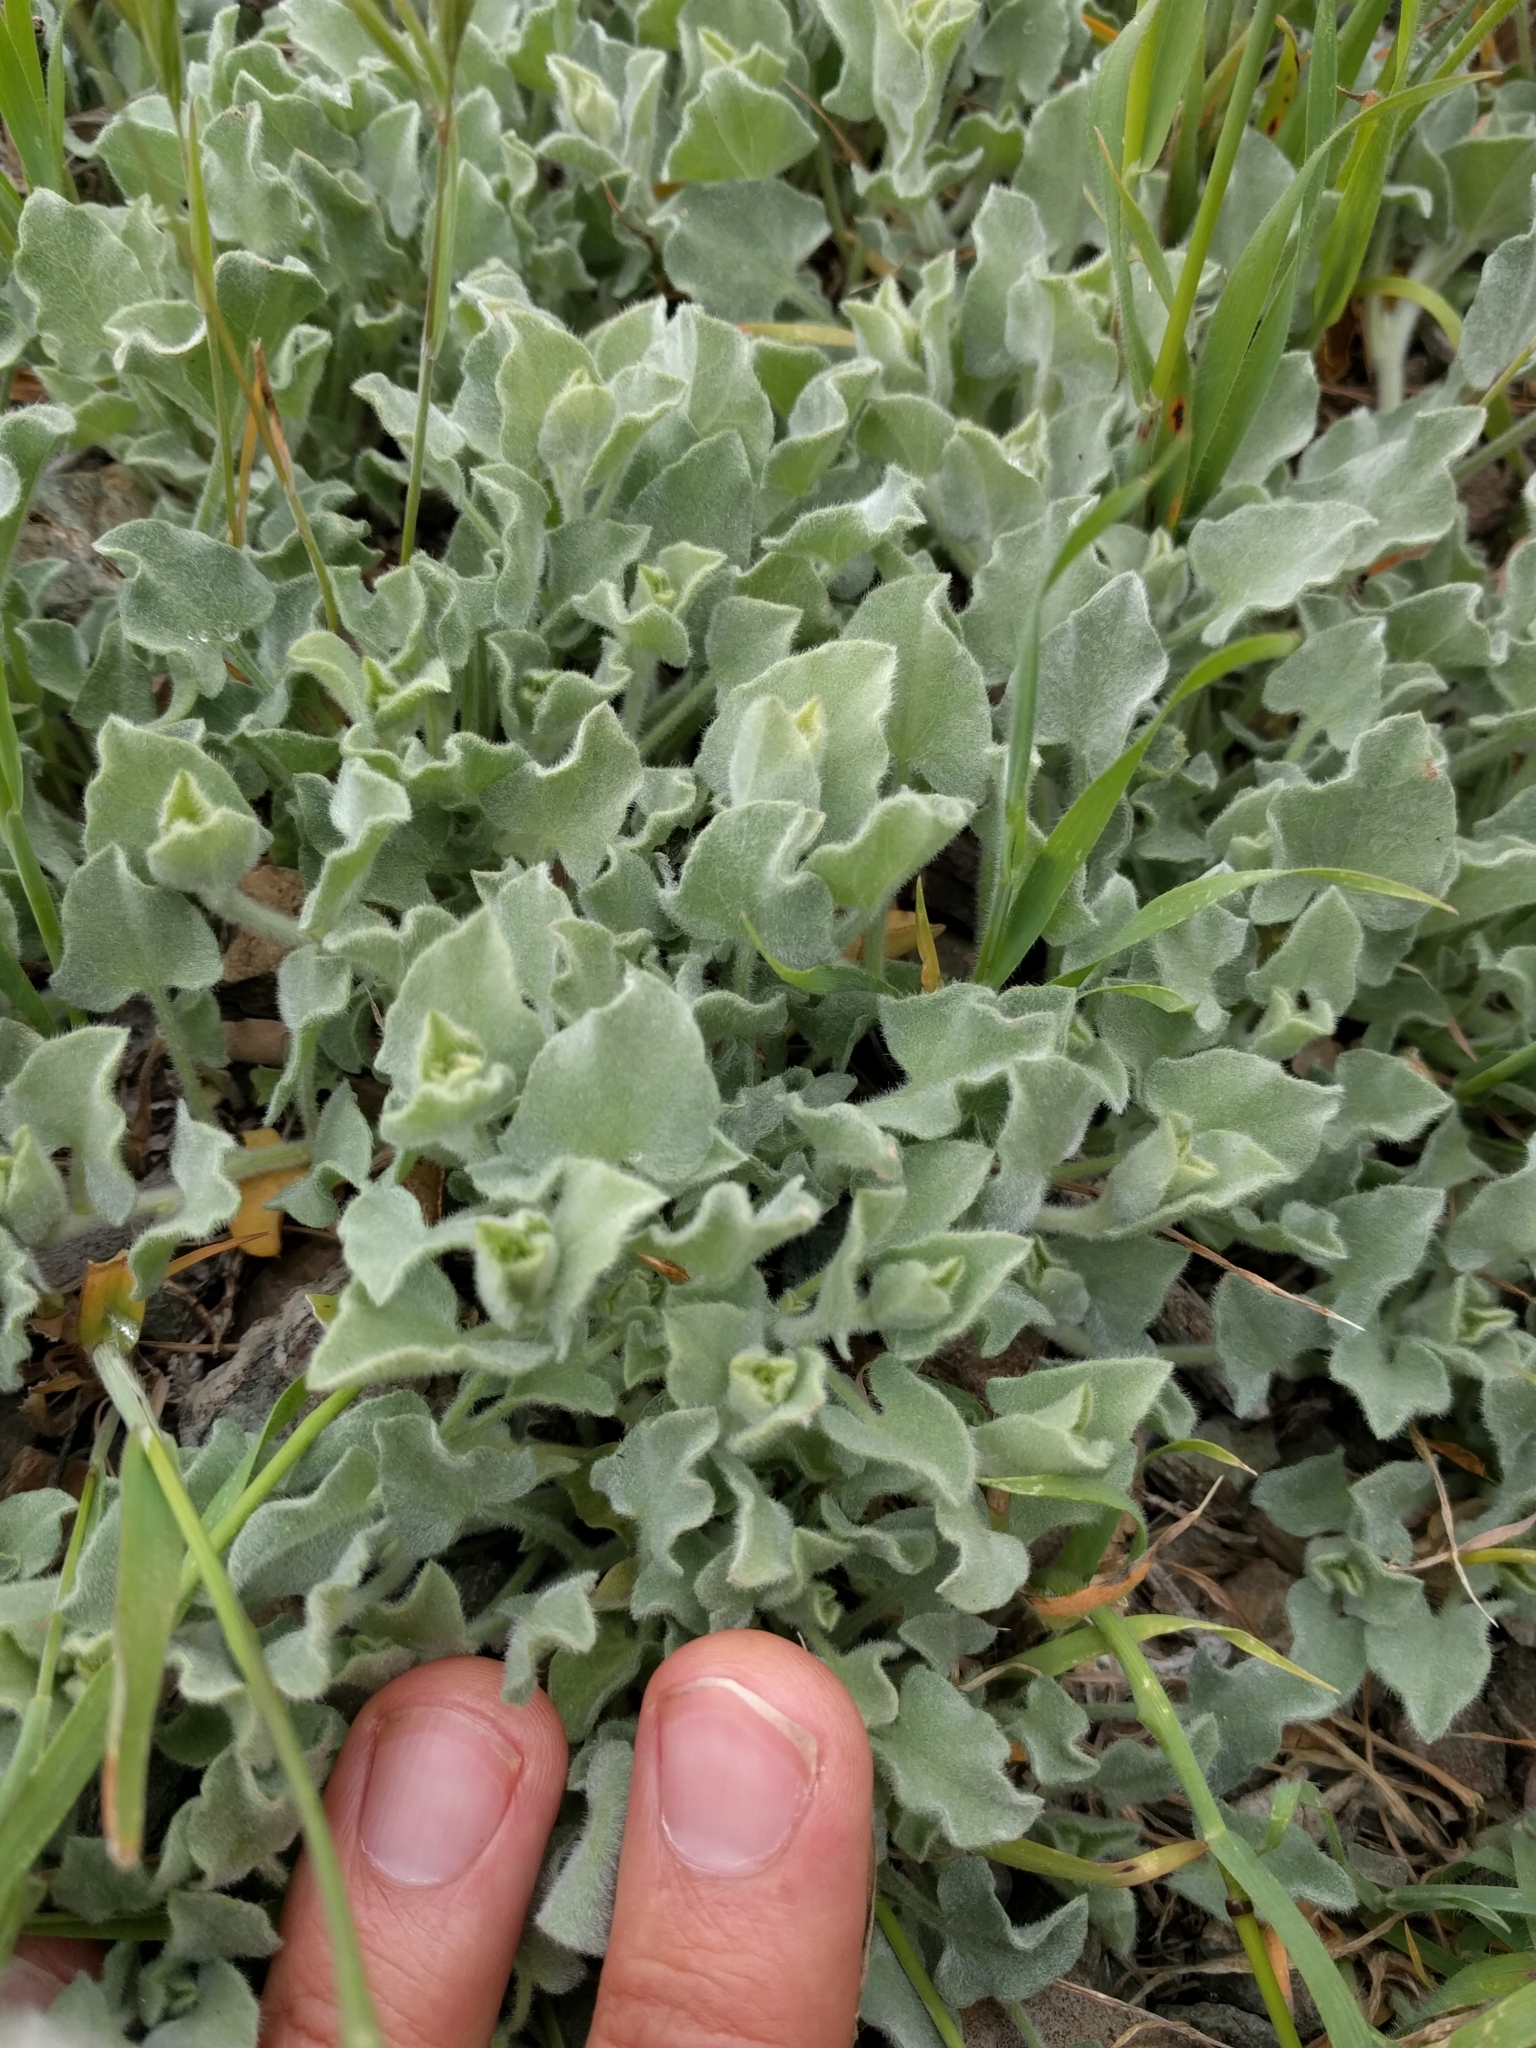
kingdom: Plantae
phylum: Tracheophyta
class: Magnoliopsida
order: Solanales
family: Convolvulaceae
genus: Calystegia
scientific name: Calystegia malacophylla
